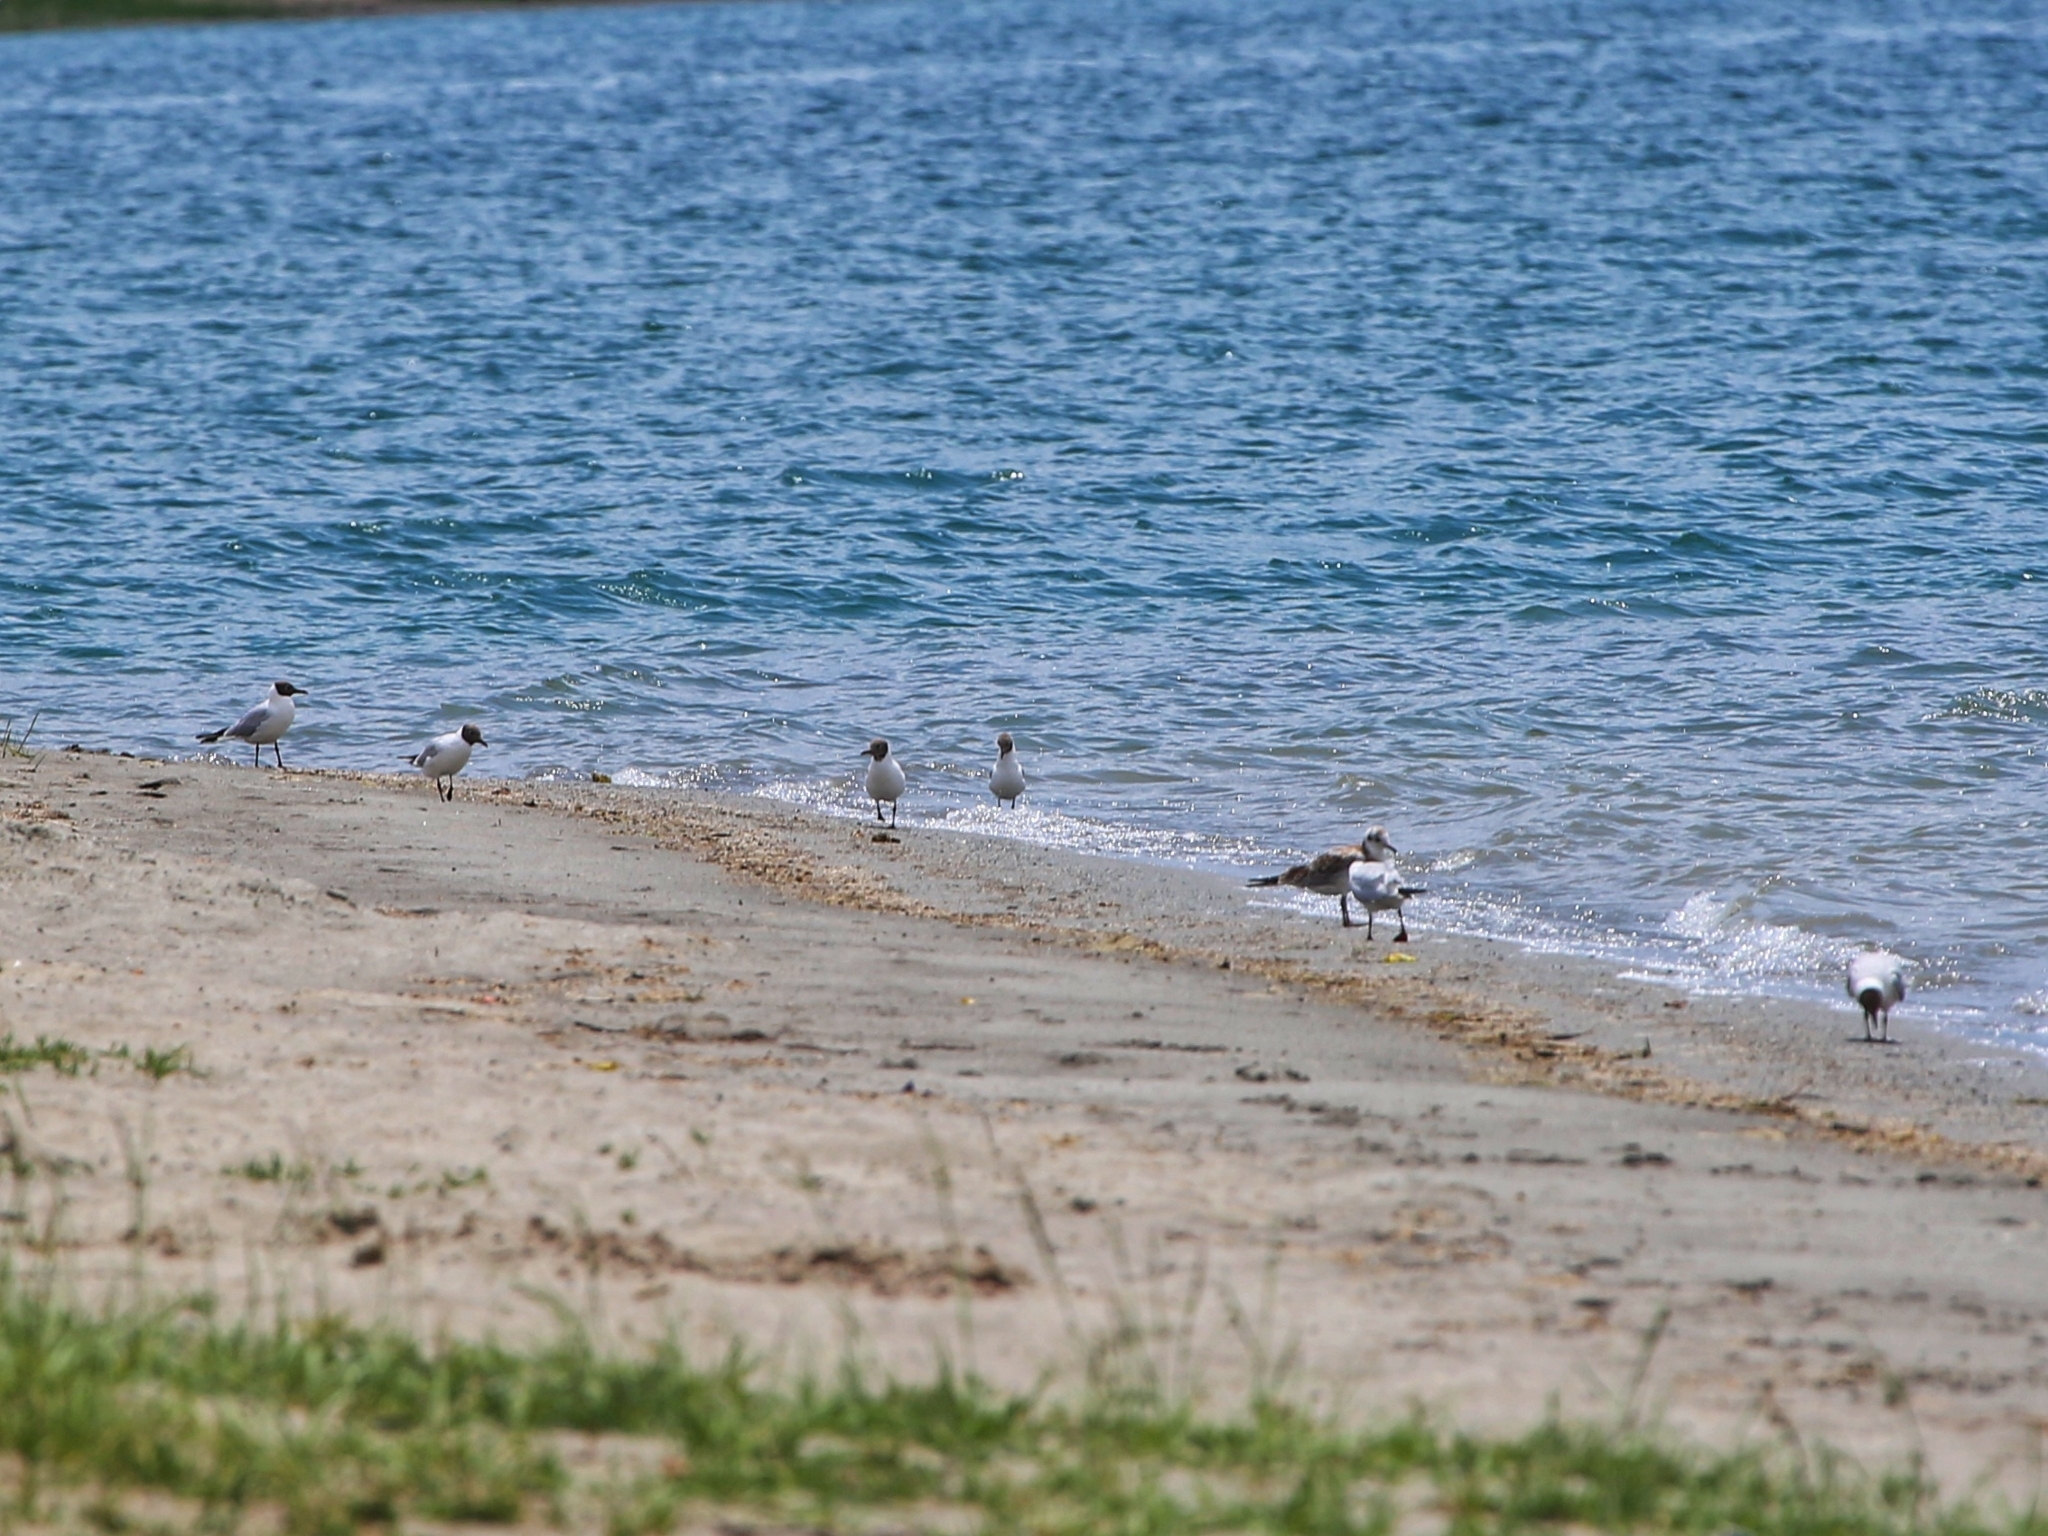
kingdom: Animalia
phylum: Chordata
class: Aves
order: Charadriiformes
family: Laridae
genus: Chroicocephalus
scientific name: Chroicocephalus ridibundus
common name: Black-headed gull
